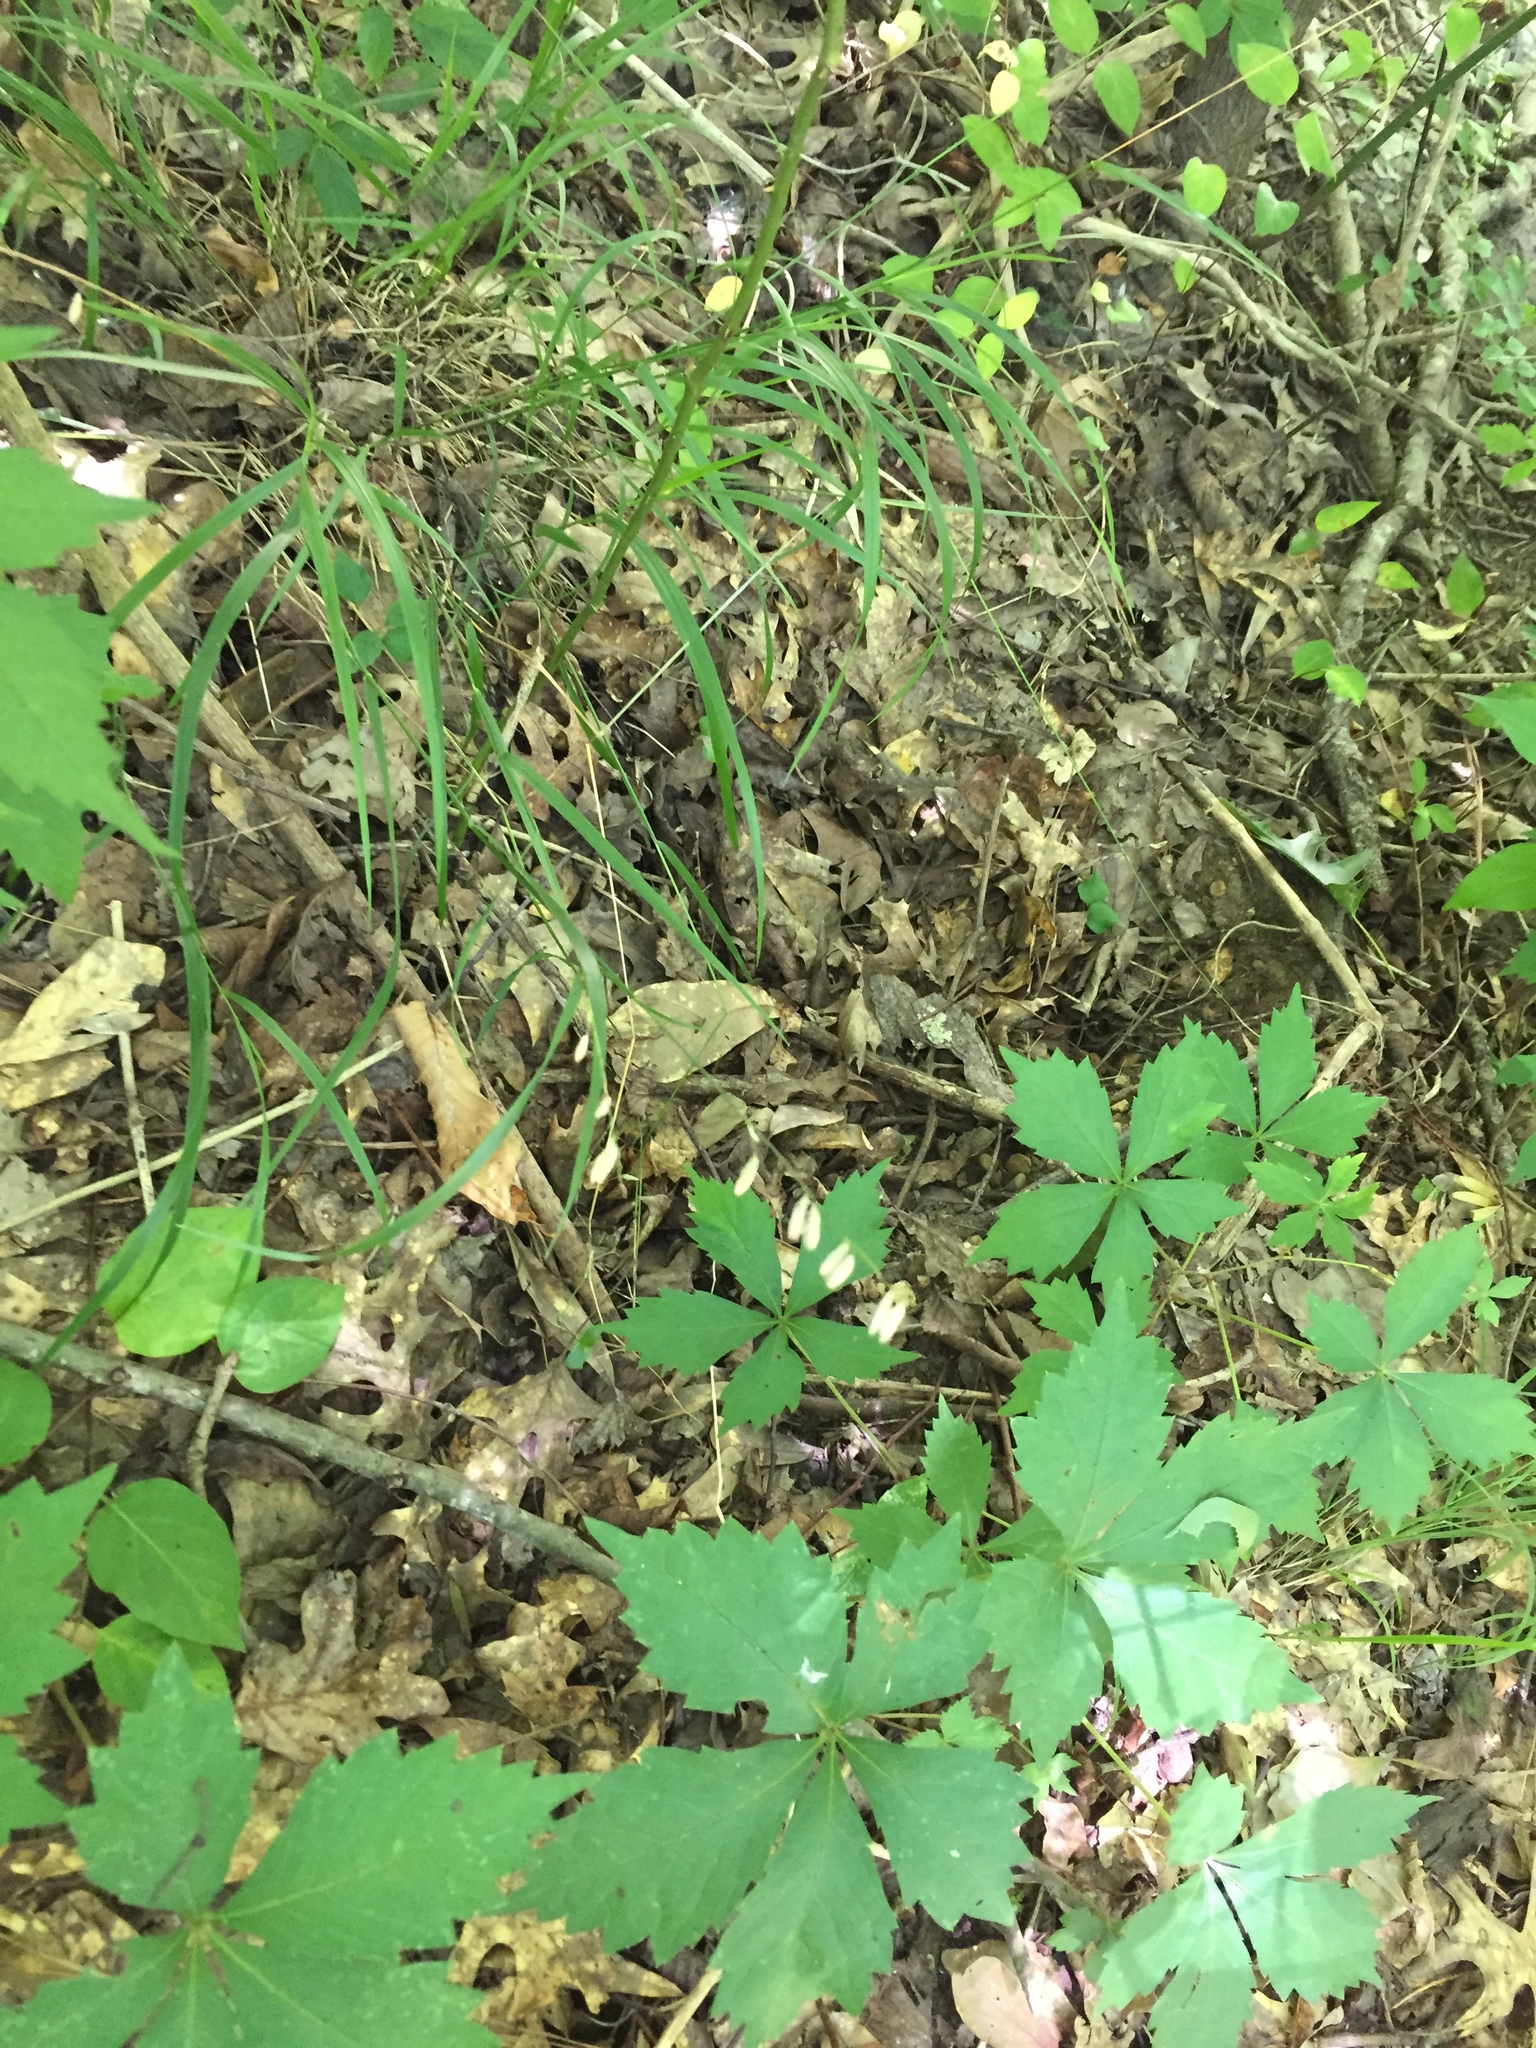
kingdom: Plantae
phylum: Tracheophyta
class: Liliopsida
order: Poales
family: Poaceae
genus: Melica
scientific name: Melica mutica
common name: Two-flower melic
